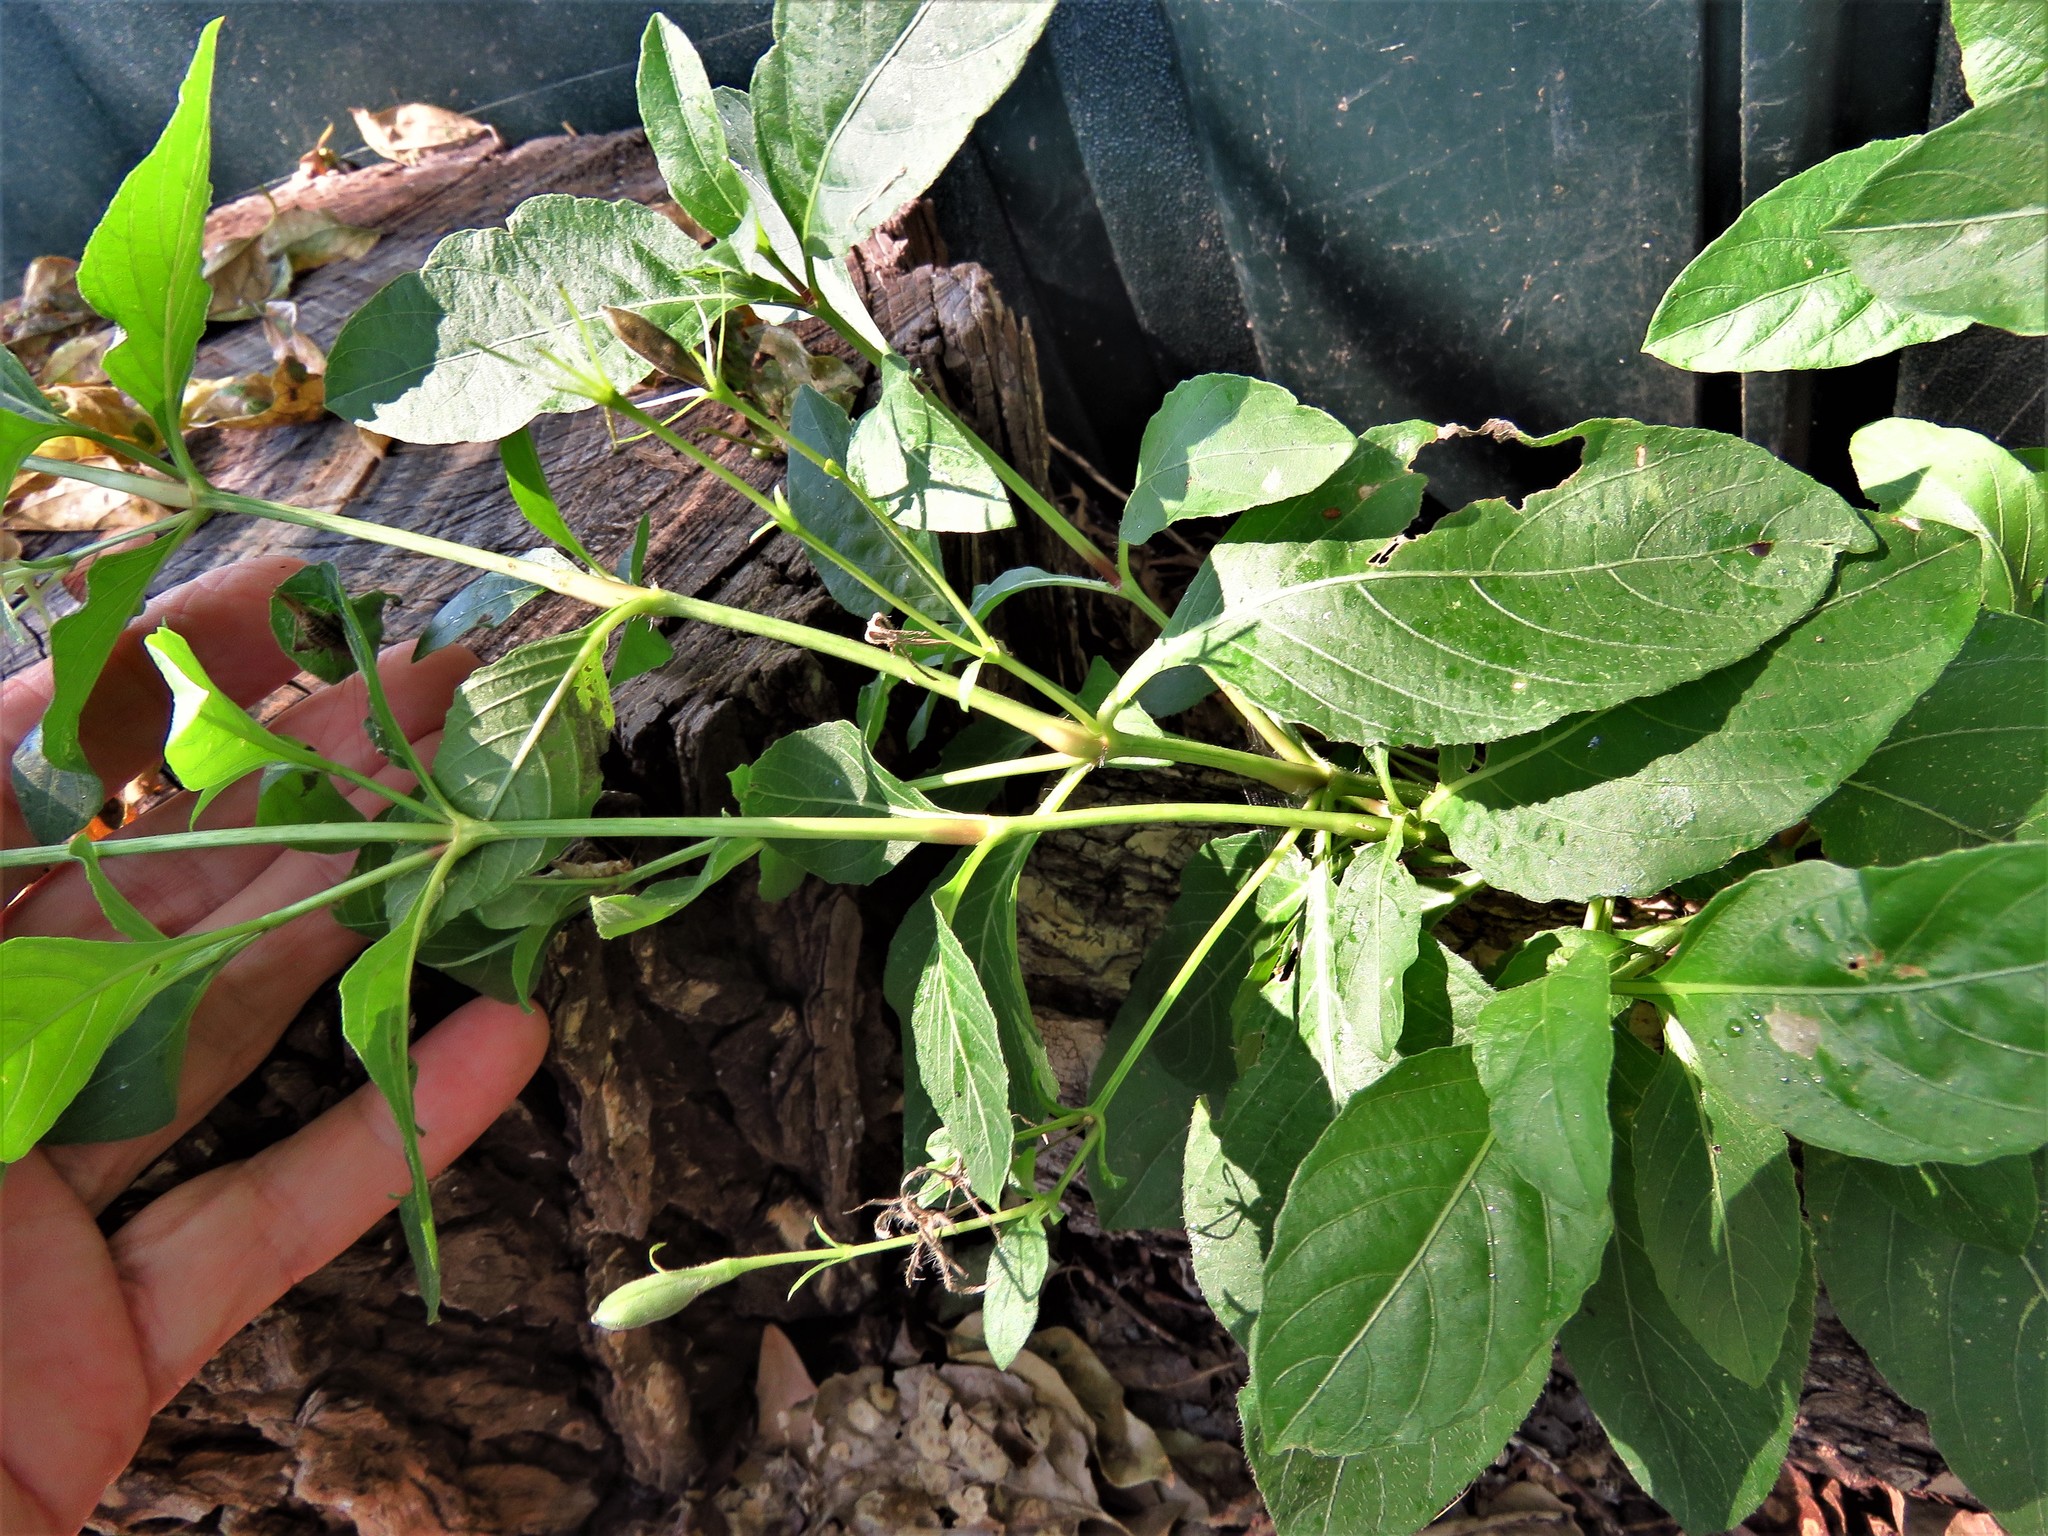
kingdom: Plantae
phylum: Tracheophyta
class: Magnoliopsida
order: Lamiales
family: Acanthaceae
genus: Ruellia
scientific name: Ruellia ciliatiflora
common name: Hairyflower wild petunia
